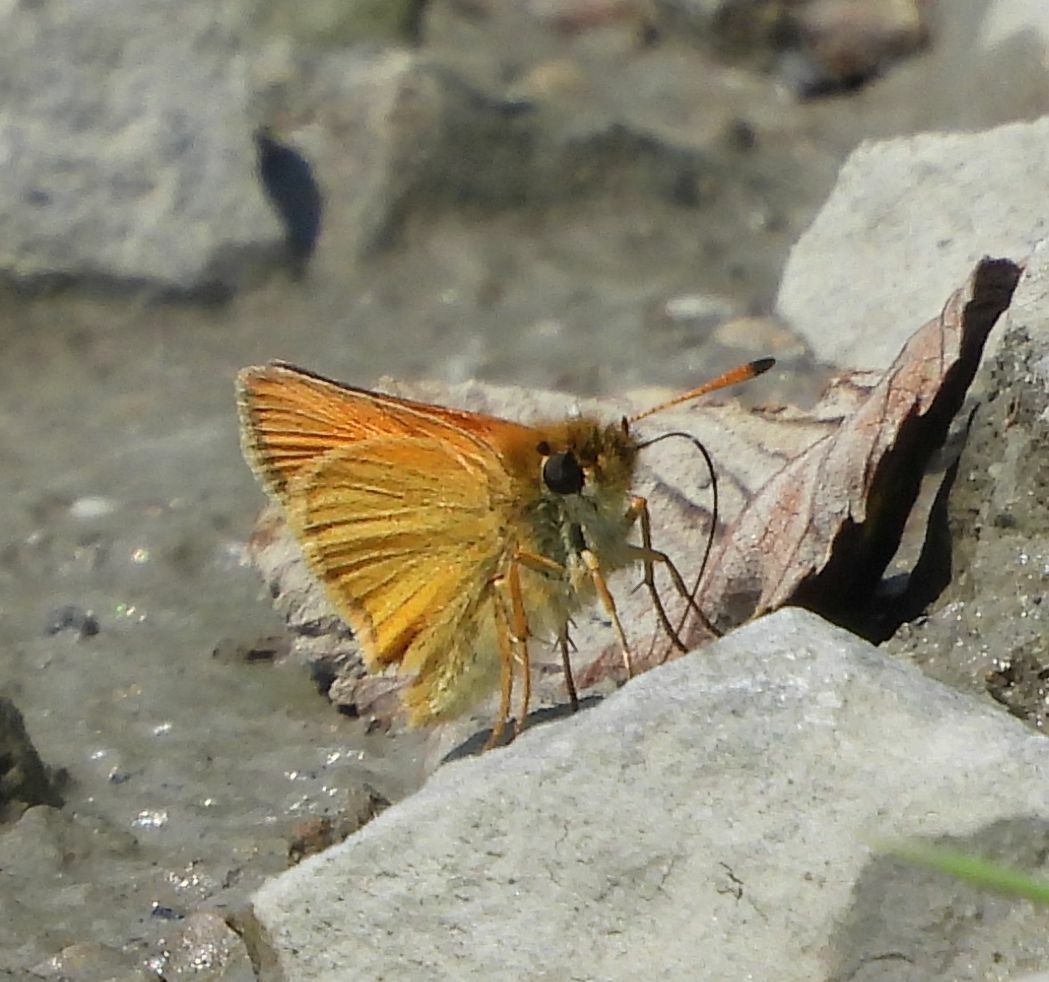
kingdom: Animalia
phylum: Arthropoda
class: Insecta
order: Lepidoptera
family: Hesperiidae
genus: Thymelicus
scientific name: Thymelicus lineola
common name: Essex skipper
